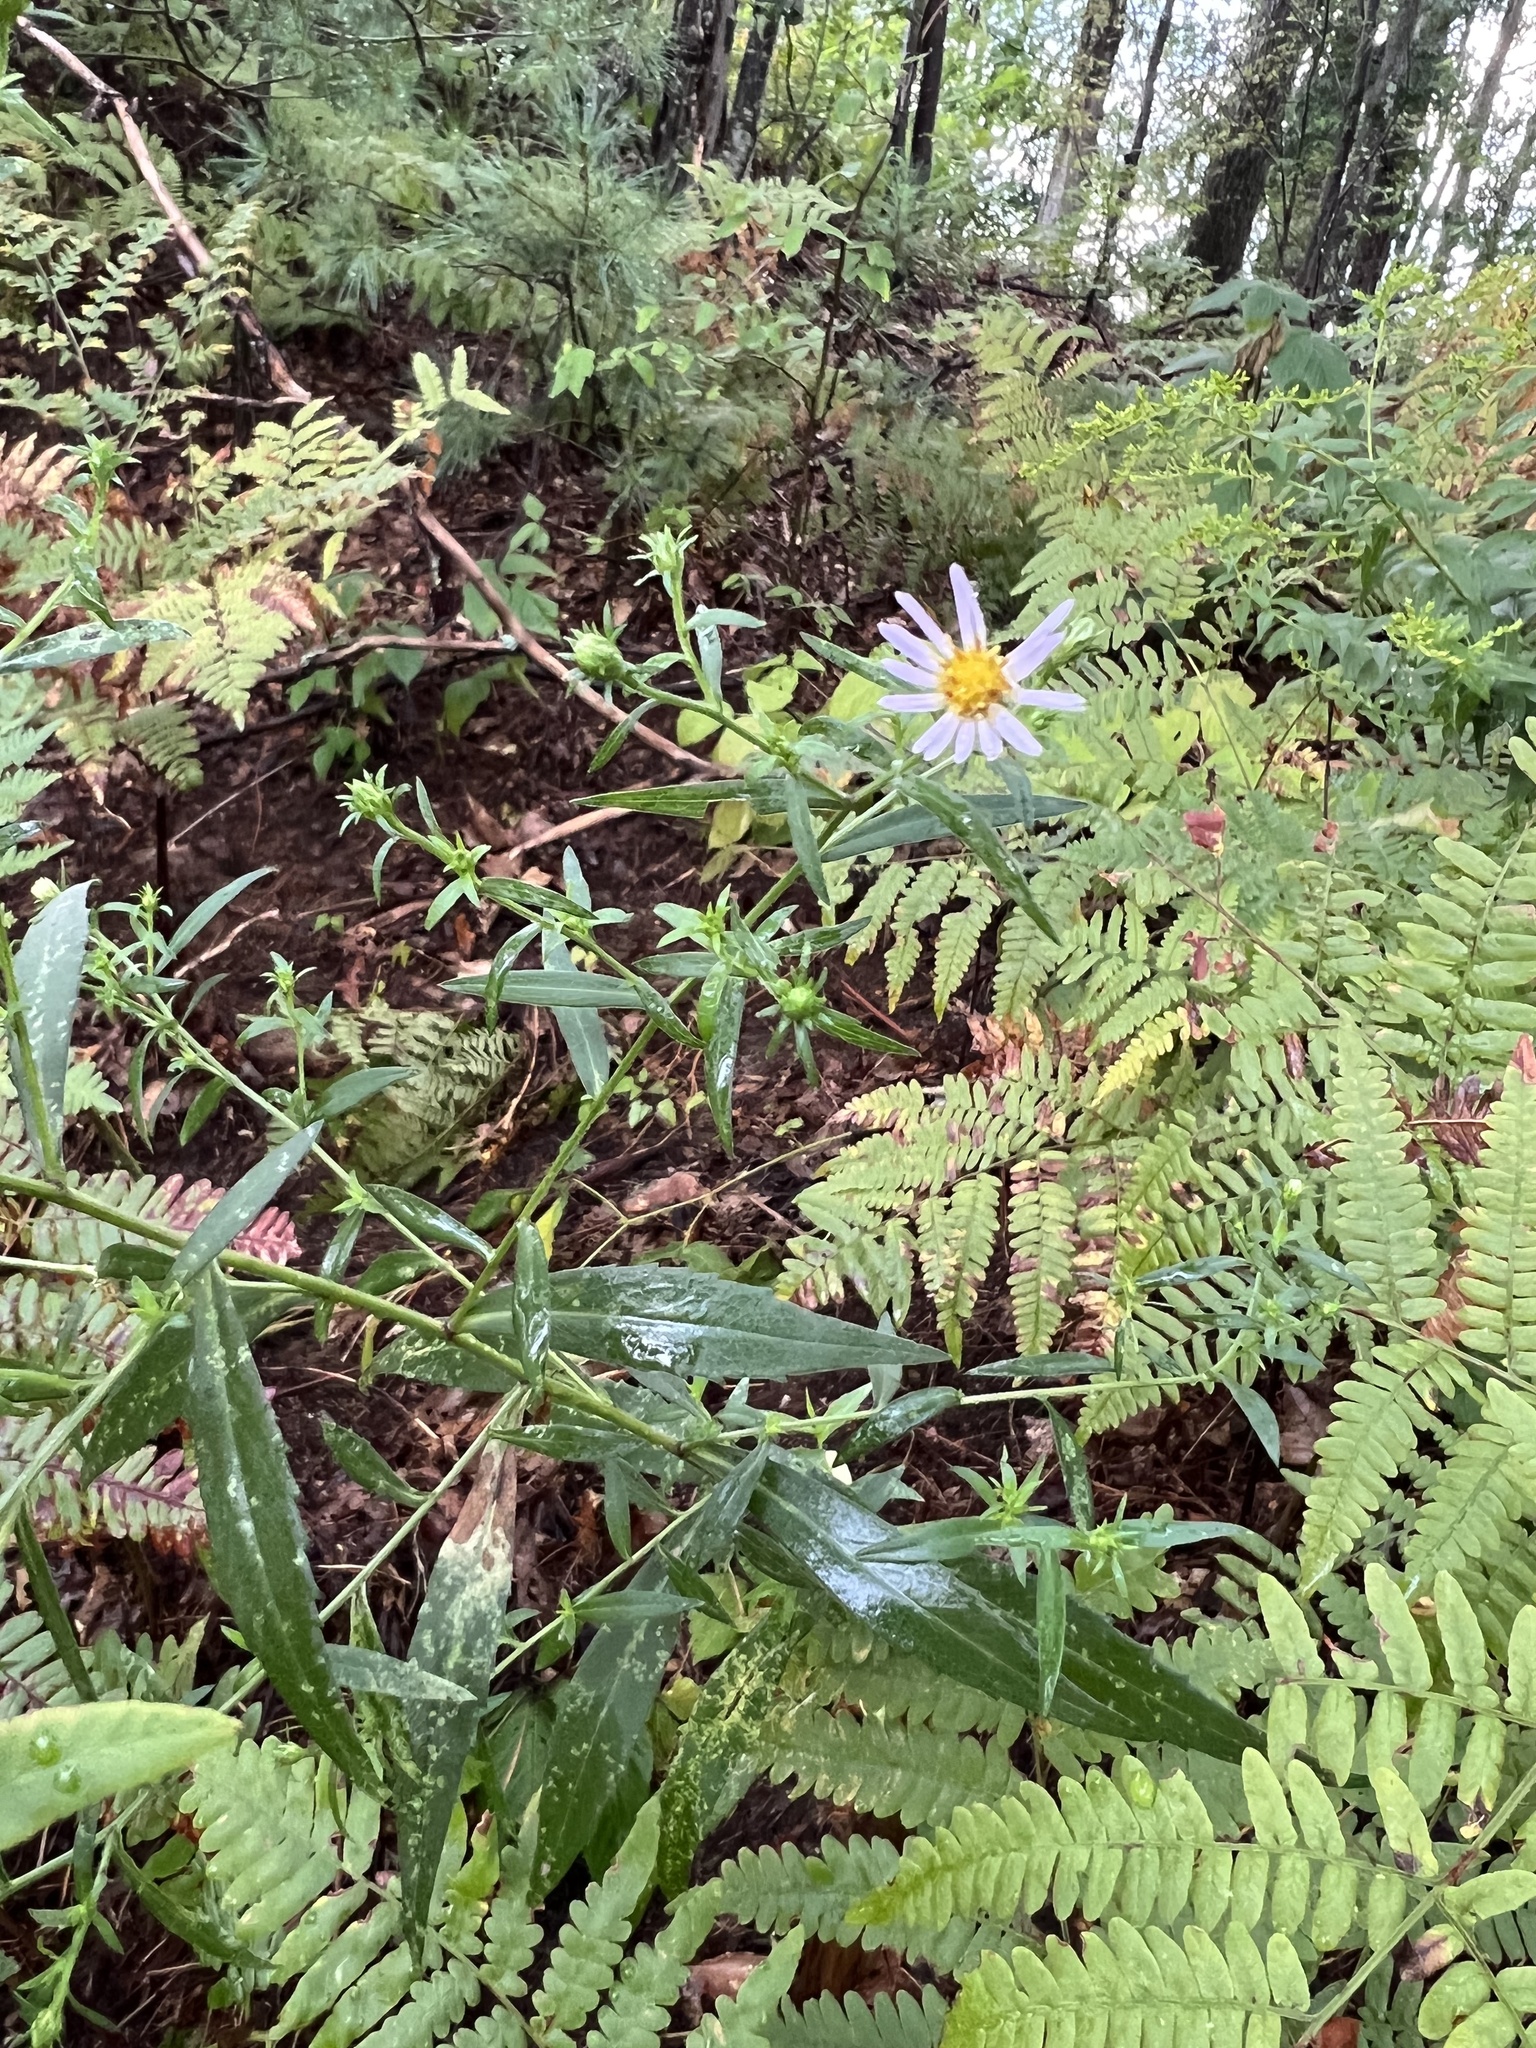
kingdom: Plantae
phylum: Tracheophyta
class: Polypodiopsida
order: Polypodiales
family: Dennstaedtiaceae
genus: Pteridium
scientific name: Pteridium aquilinum
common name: Bracken
